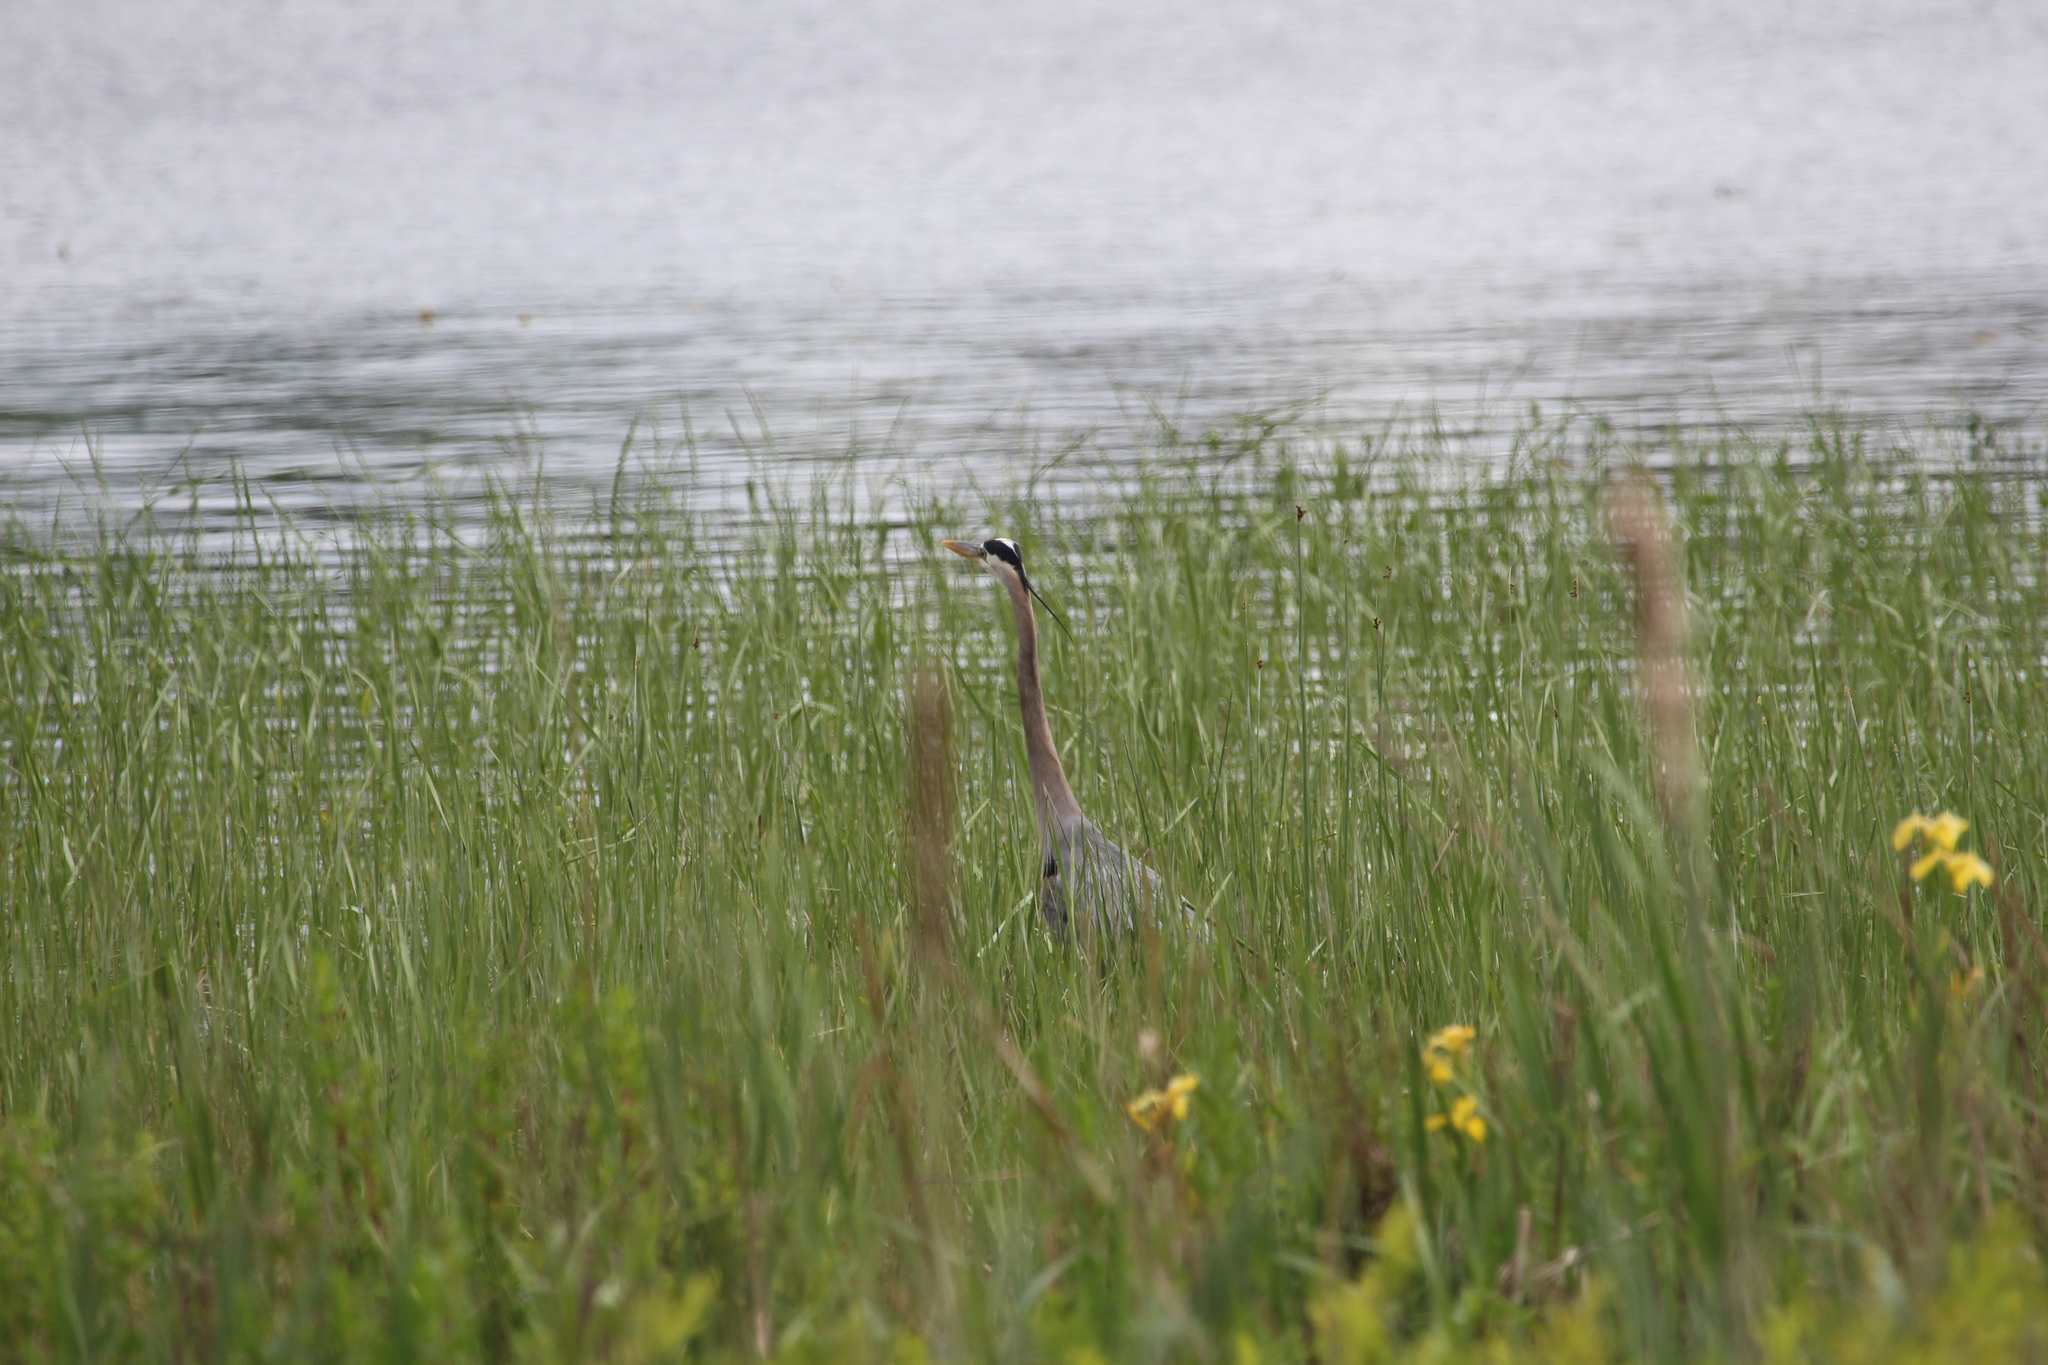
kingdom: Animalia
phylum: Chordata
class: Aves
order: Pelecaniformes
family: Ardeidae
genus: Ardea
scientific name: Ardea herodias
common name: Great blue heron
